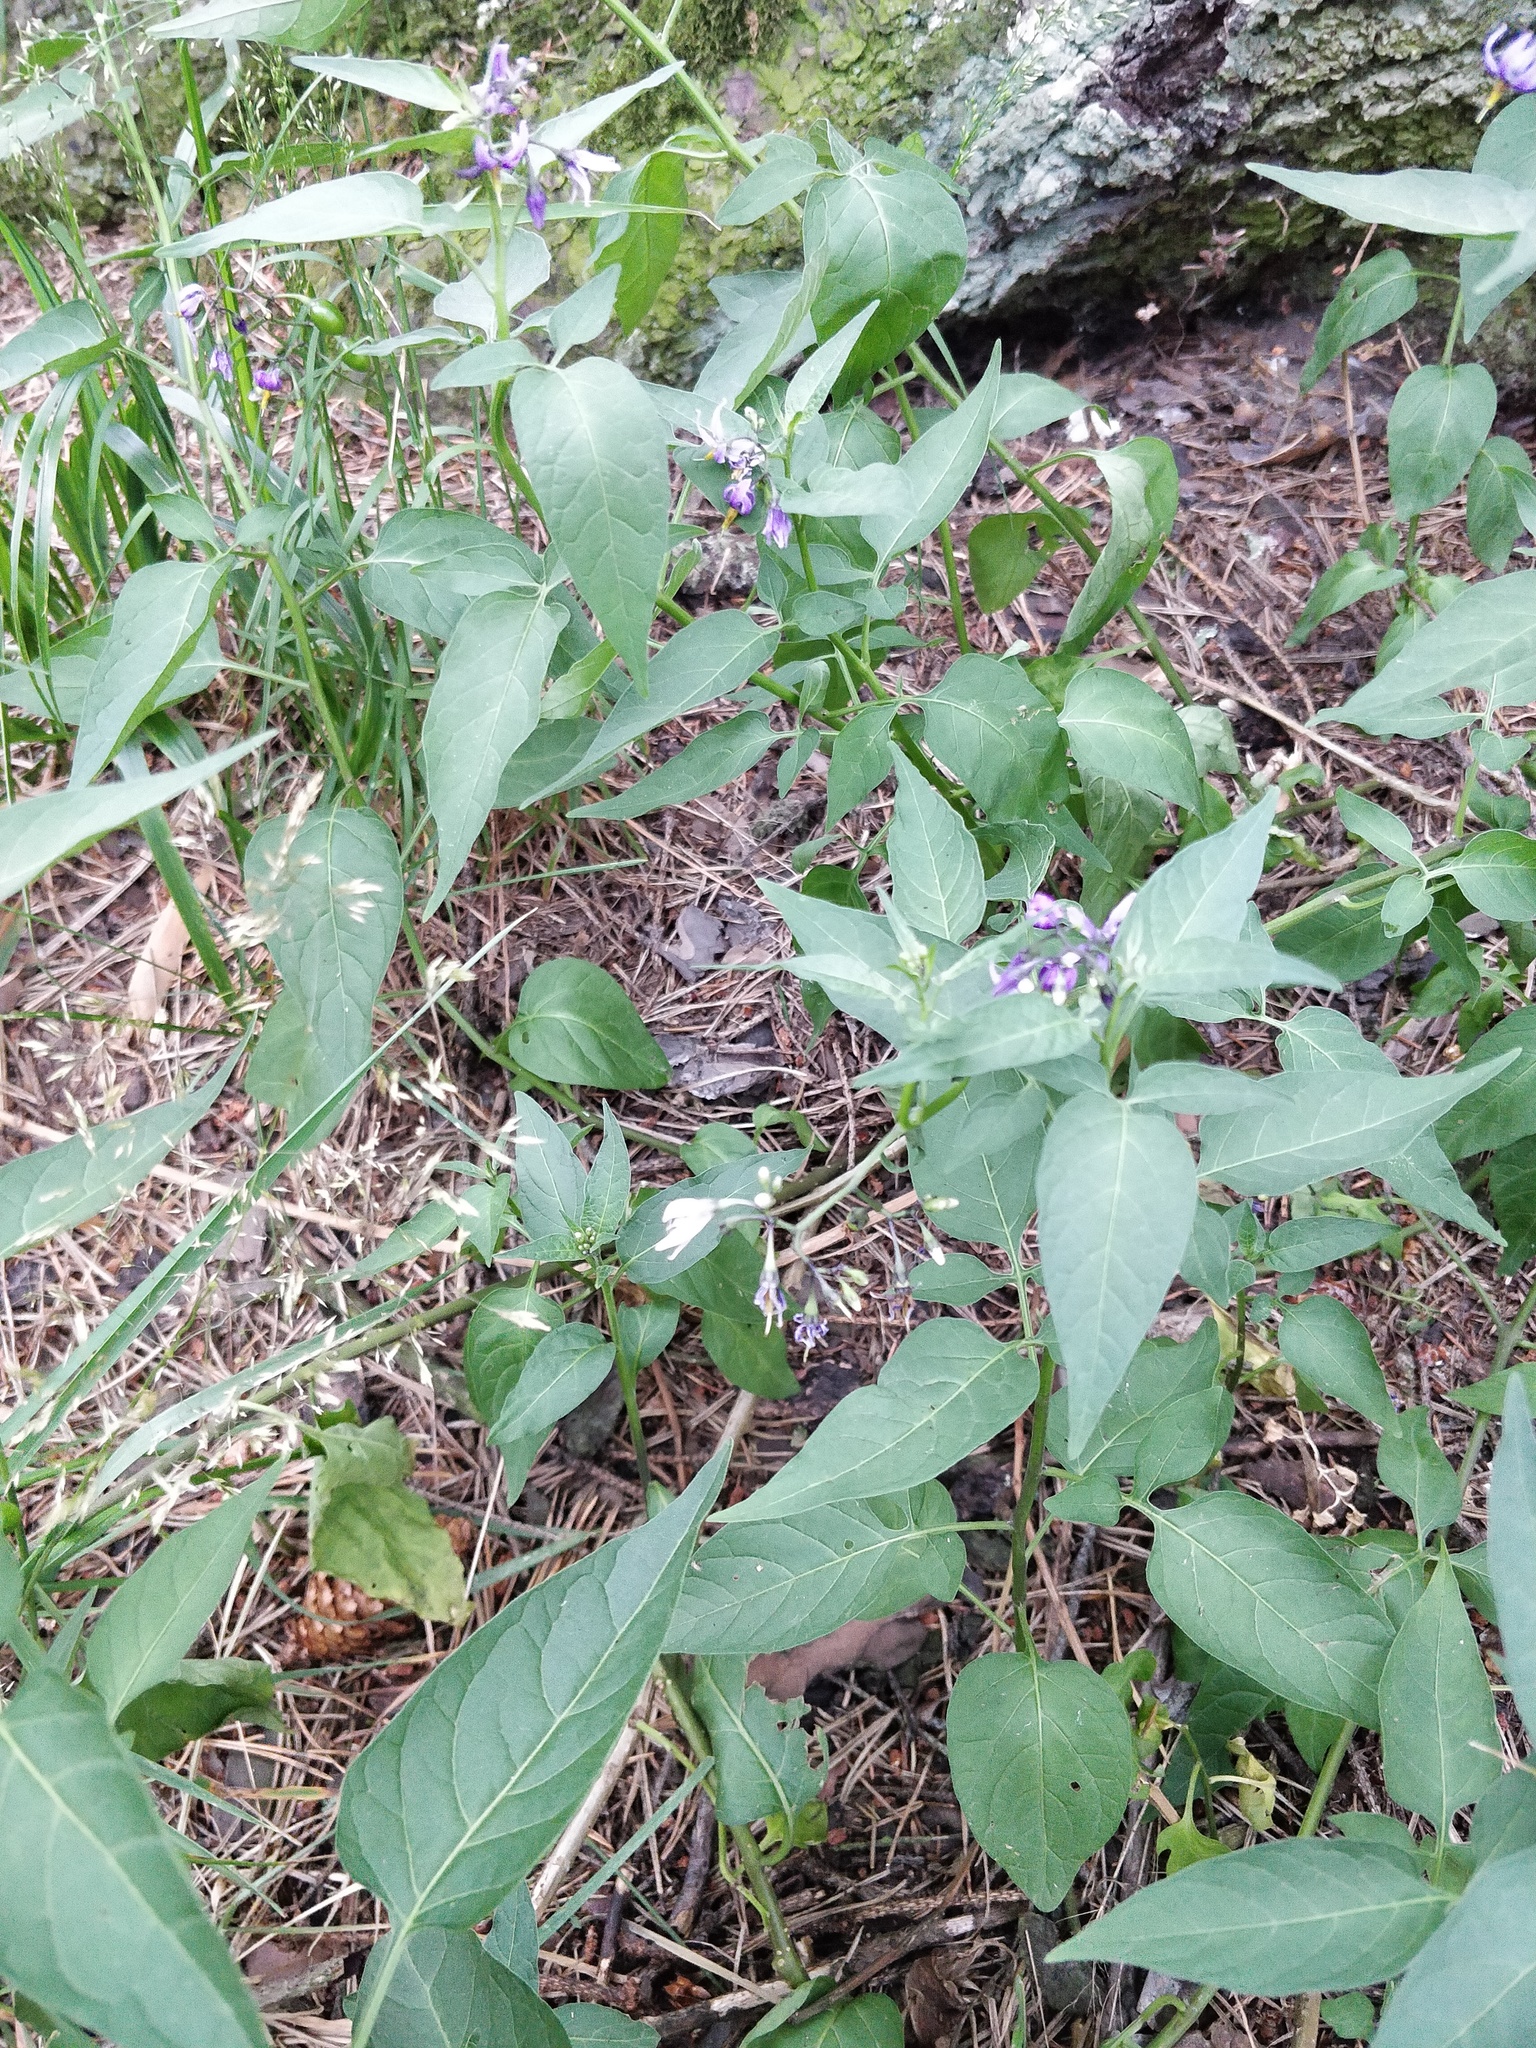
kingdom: Plantae
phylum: Tracheophyta
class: Magnoliopsida
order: Solanales
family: Solanaceae
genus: Solanum
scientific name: Solanum dulcamara
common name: Climbing nightshade
